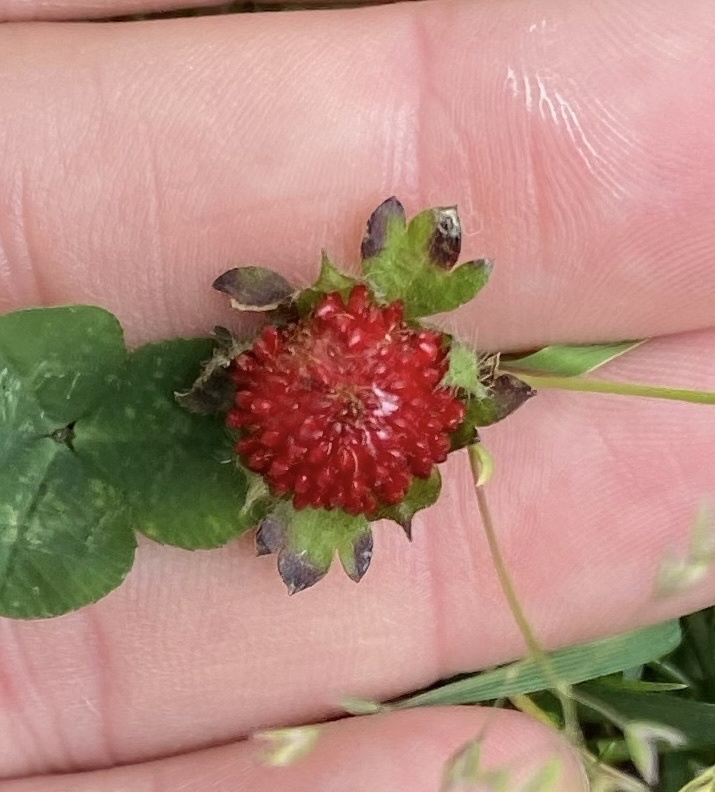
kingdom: Plantae
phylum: Tracheophyta
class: Magnoliopsida
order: Rosales
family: Rosaceae
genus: Potentilla
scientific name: Potentilla indica
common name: Yellow-flowered strawberry
